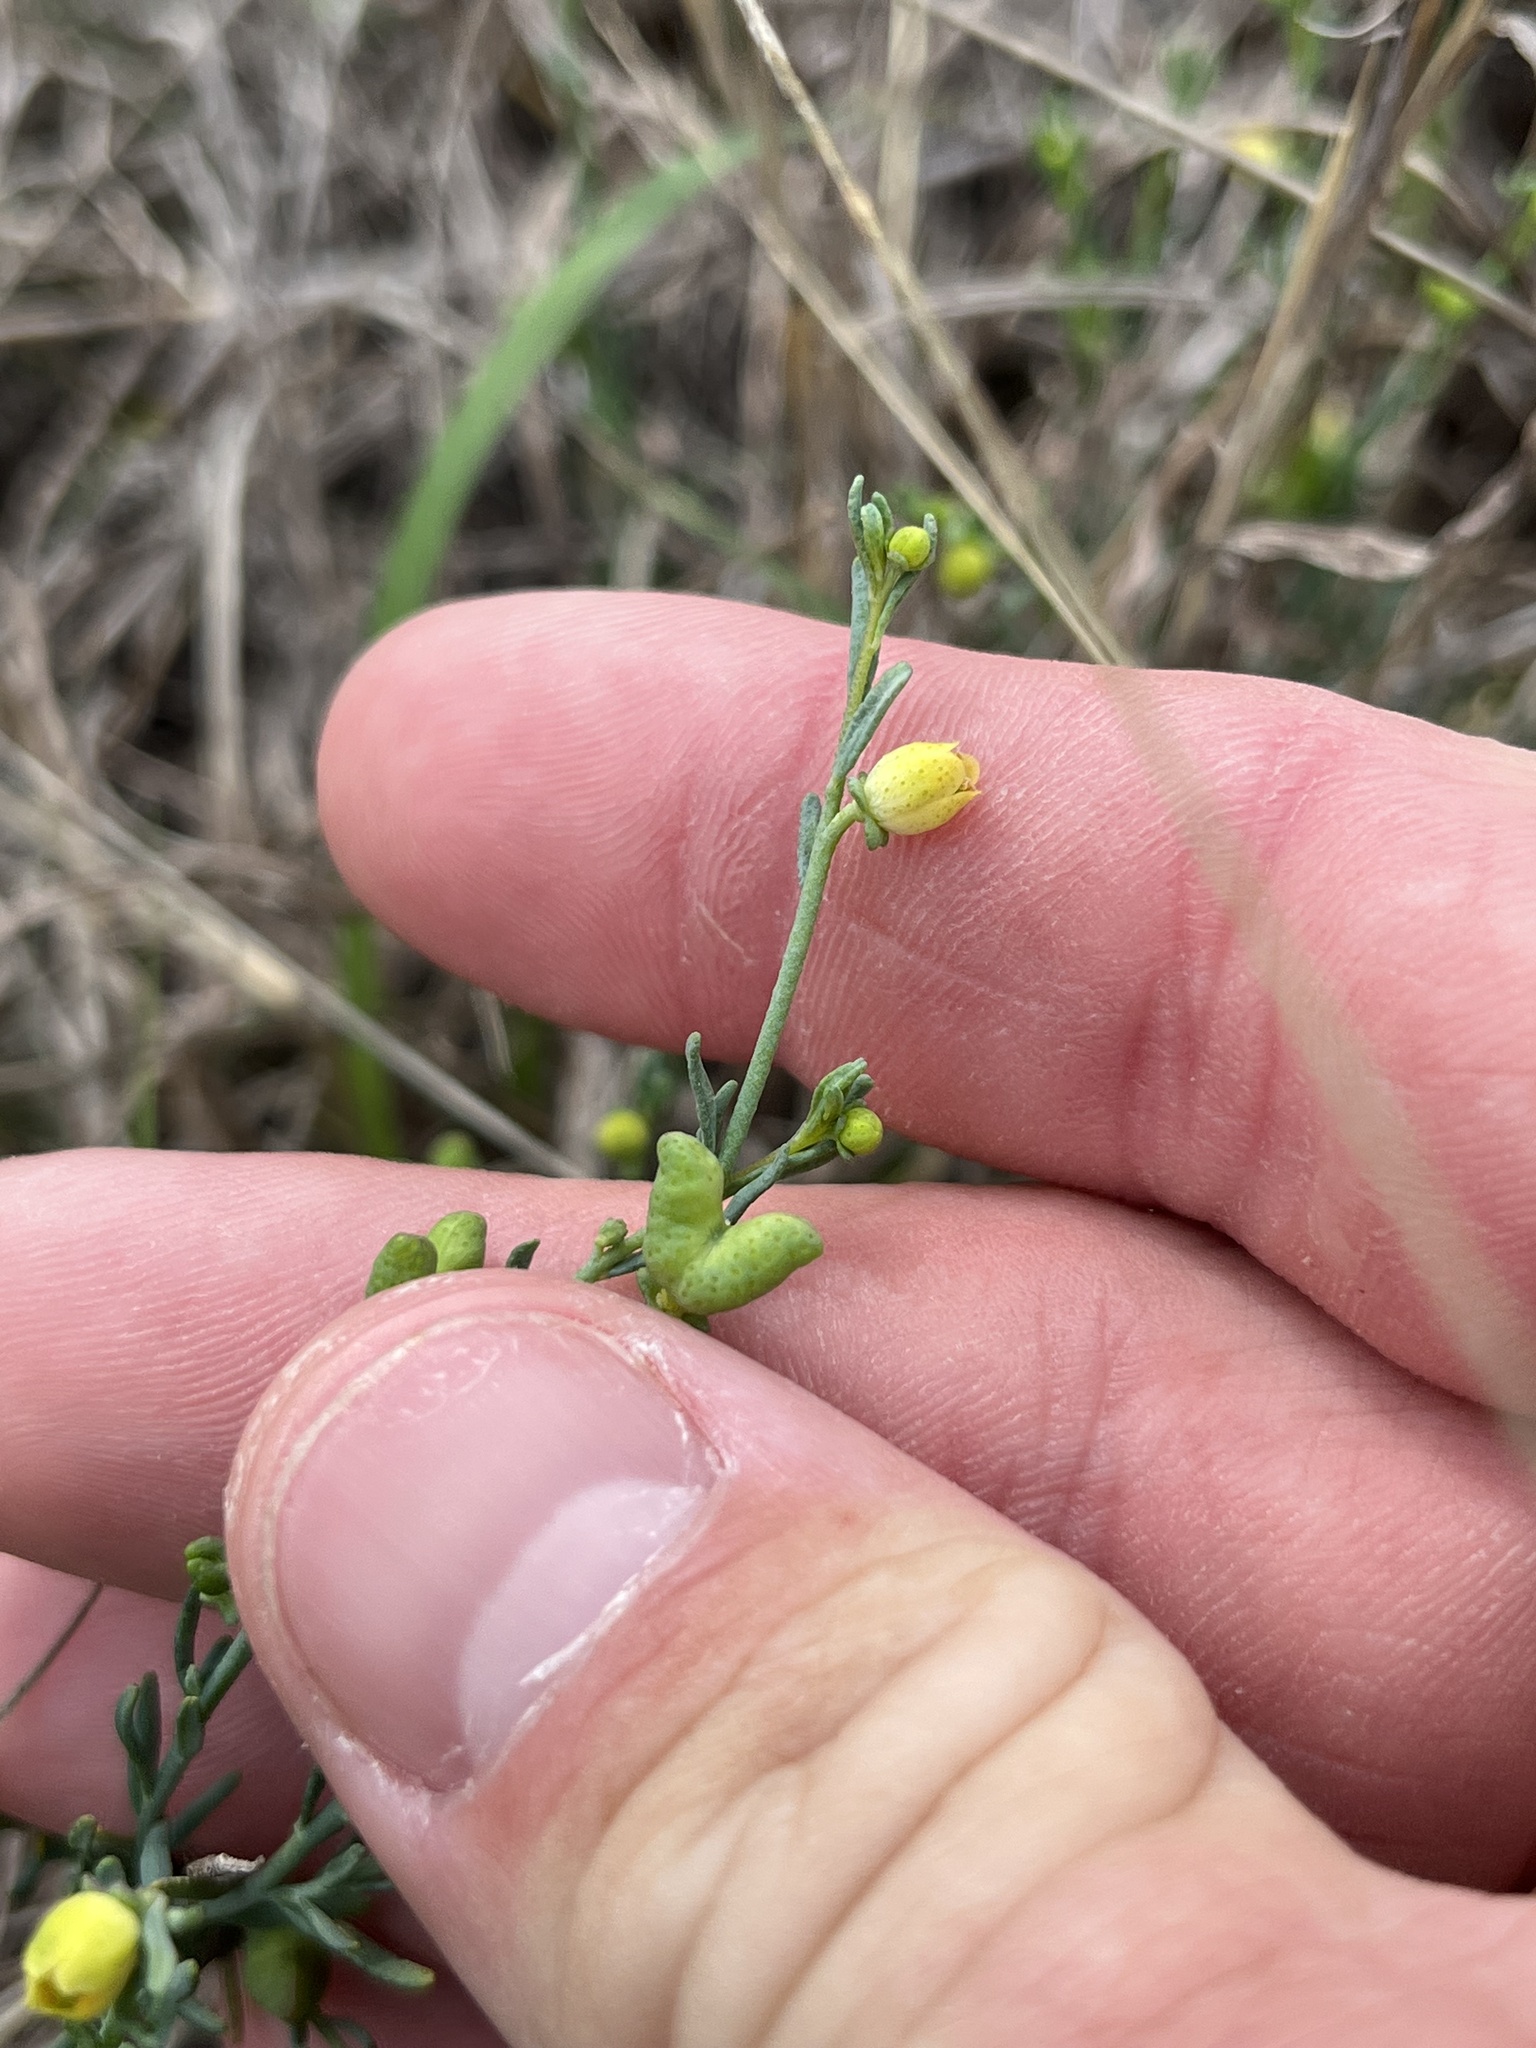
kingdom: Plantae
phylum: Tracheophyta
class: Magnoliopsida
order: Sapindales
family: Rutaceae
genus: Thamnosma
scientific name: Thamnosma texana
